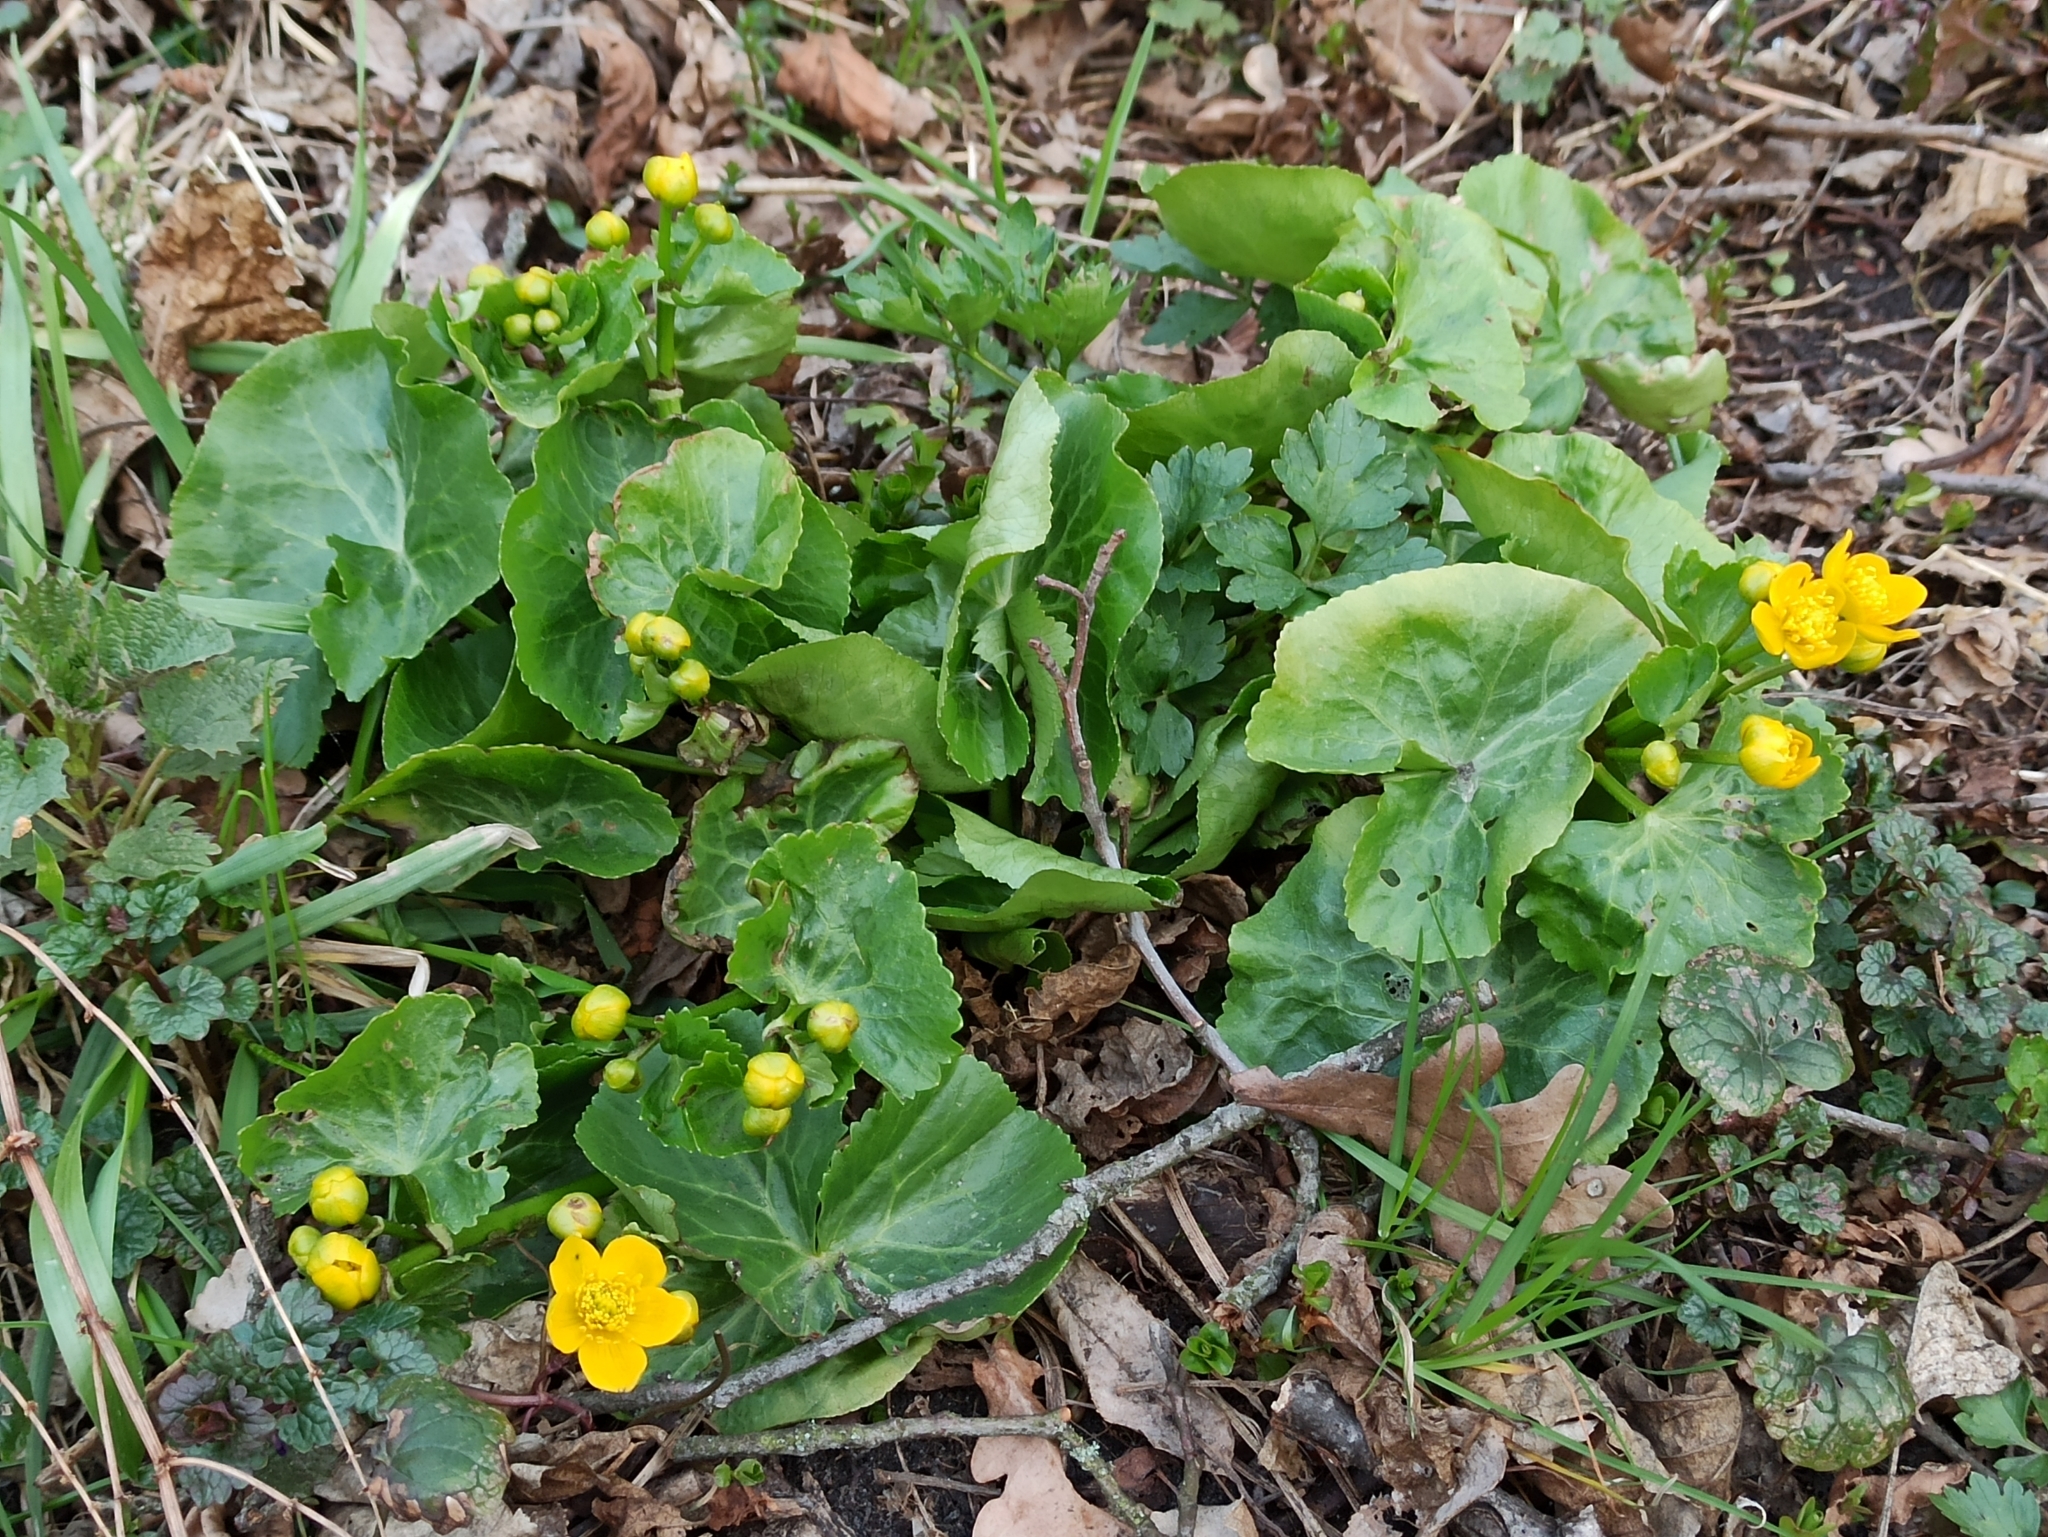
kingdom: Plantae
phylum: Tracheophyta
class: Magnoliopsida
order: Ranunculales
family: Ranunculaceae
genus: Caltha
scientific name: Caltha palustris
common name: Marsh marigold
